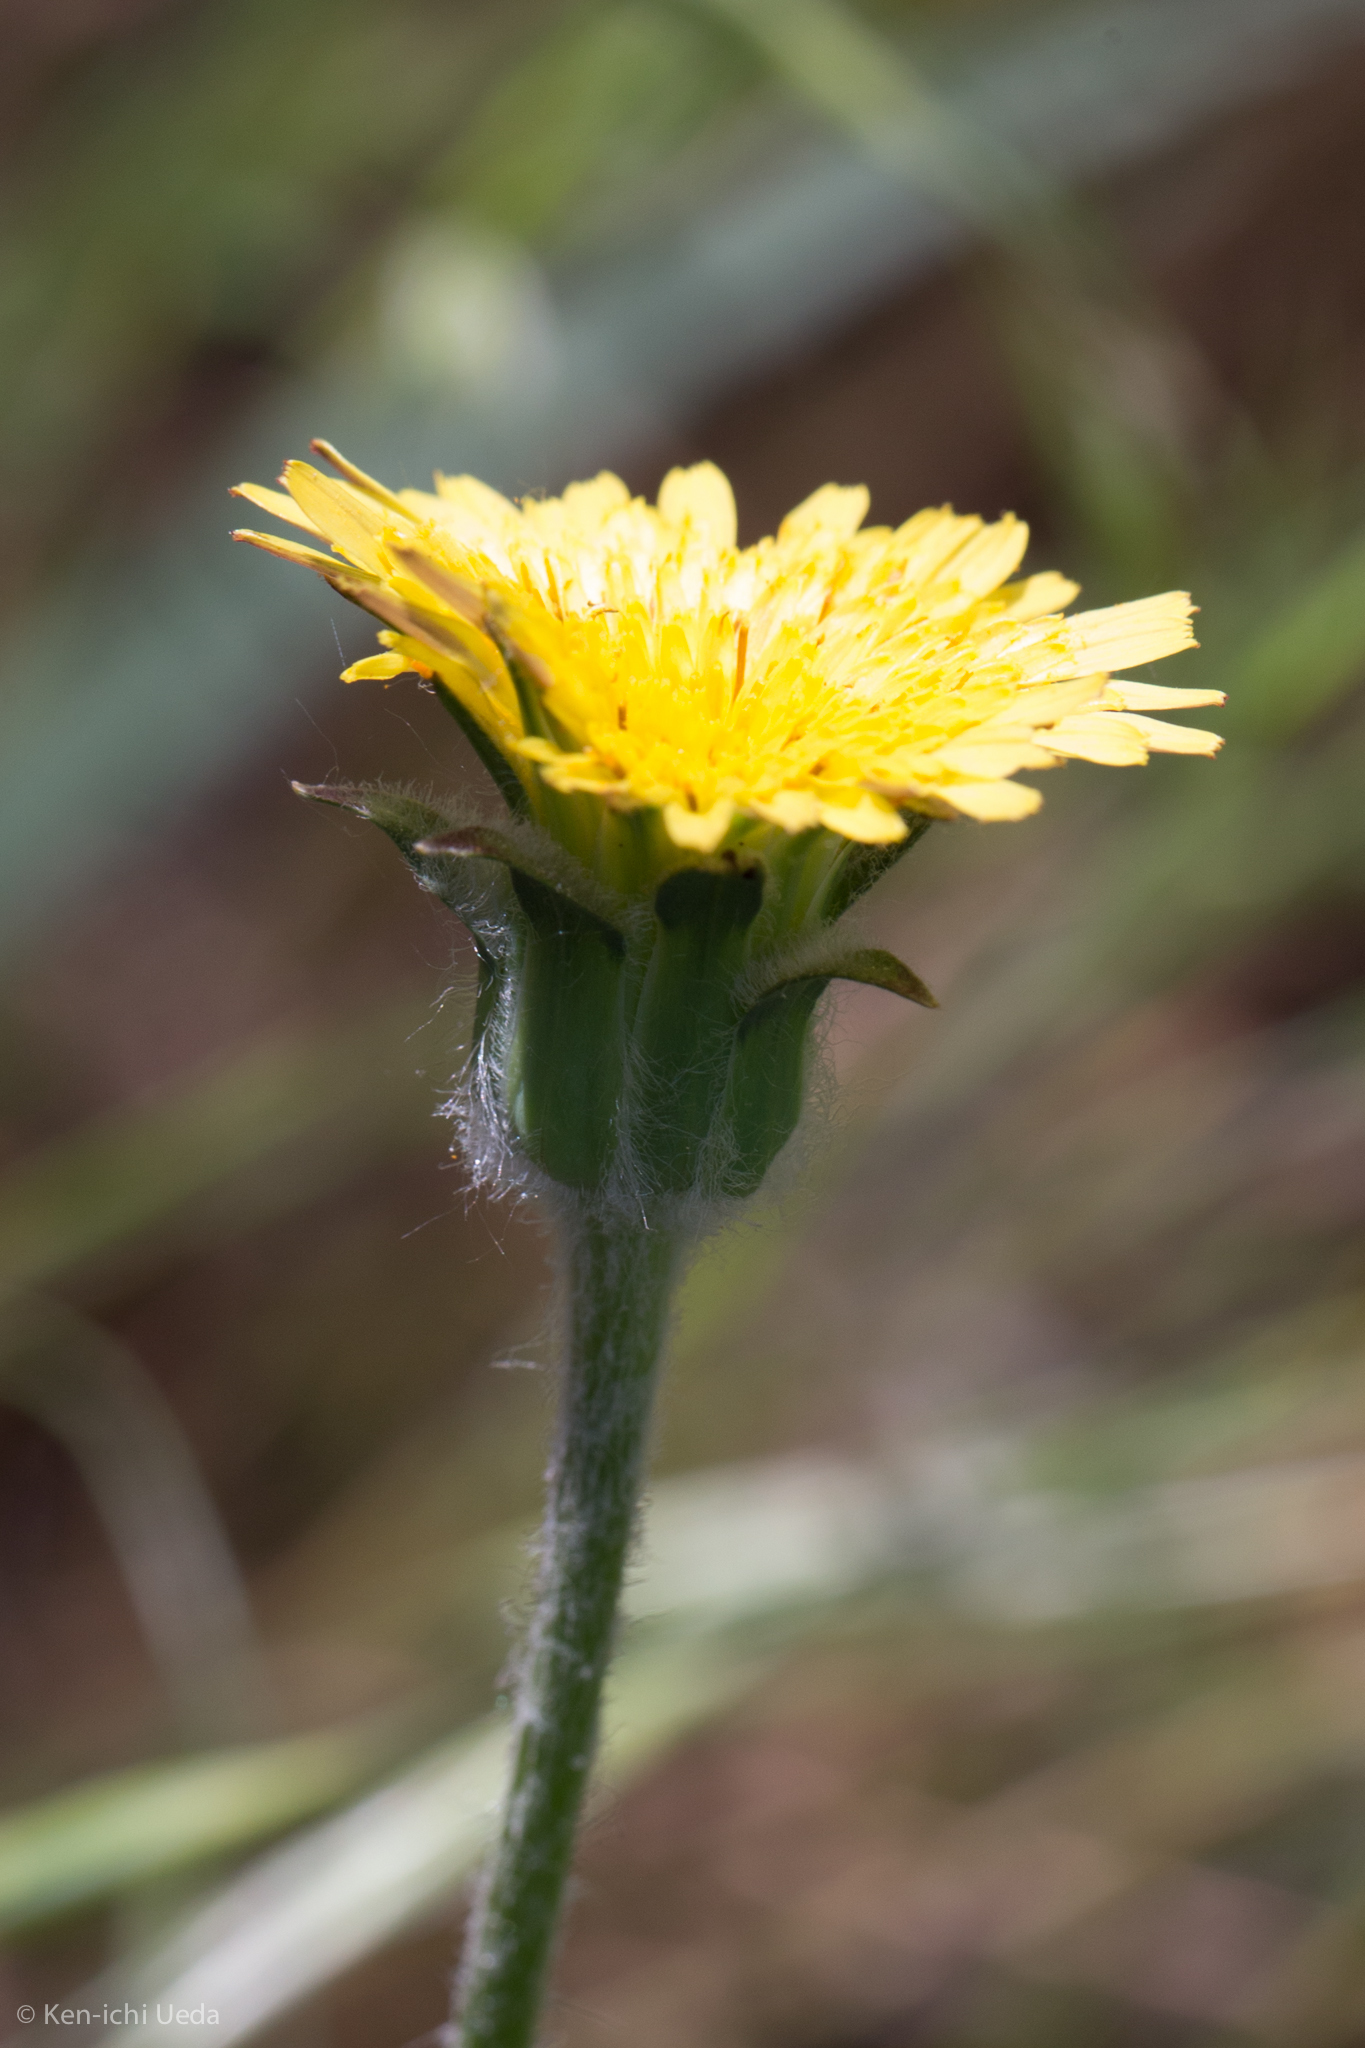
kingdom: Plantae
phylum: Tracheophyta
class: Magnoliopsida
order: Asterales
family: Asteraceae
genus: Agoseris
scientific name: Agoseris grandiflora
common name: Grassland agoseris
